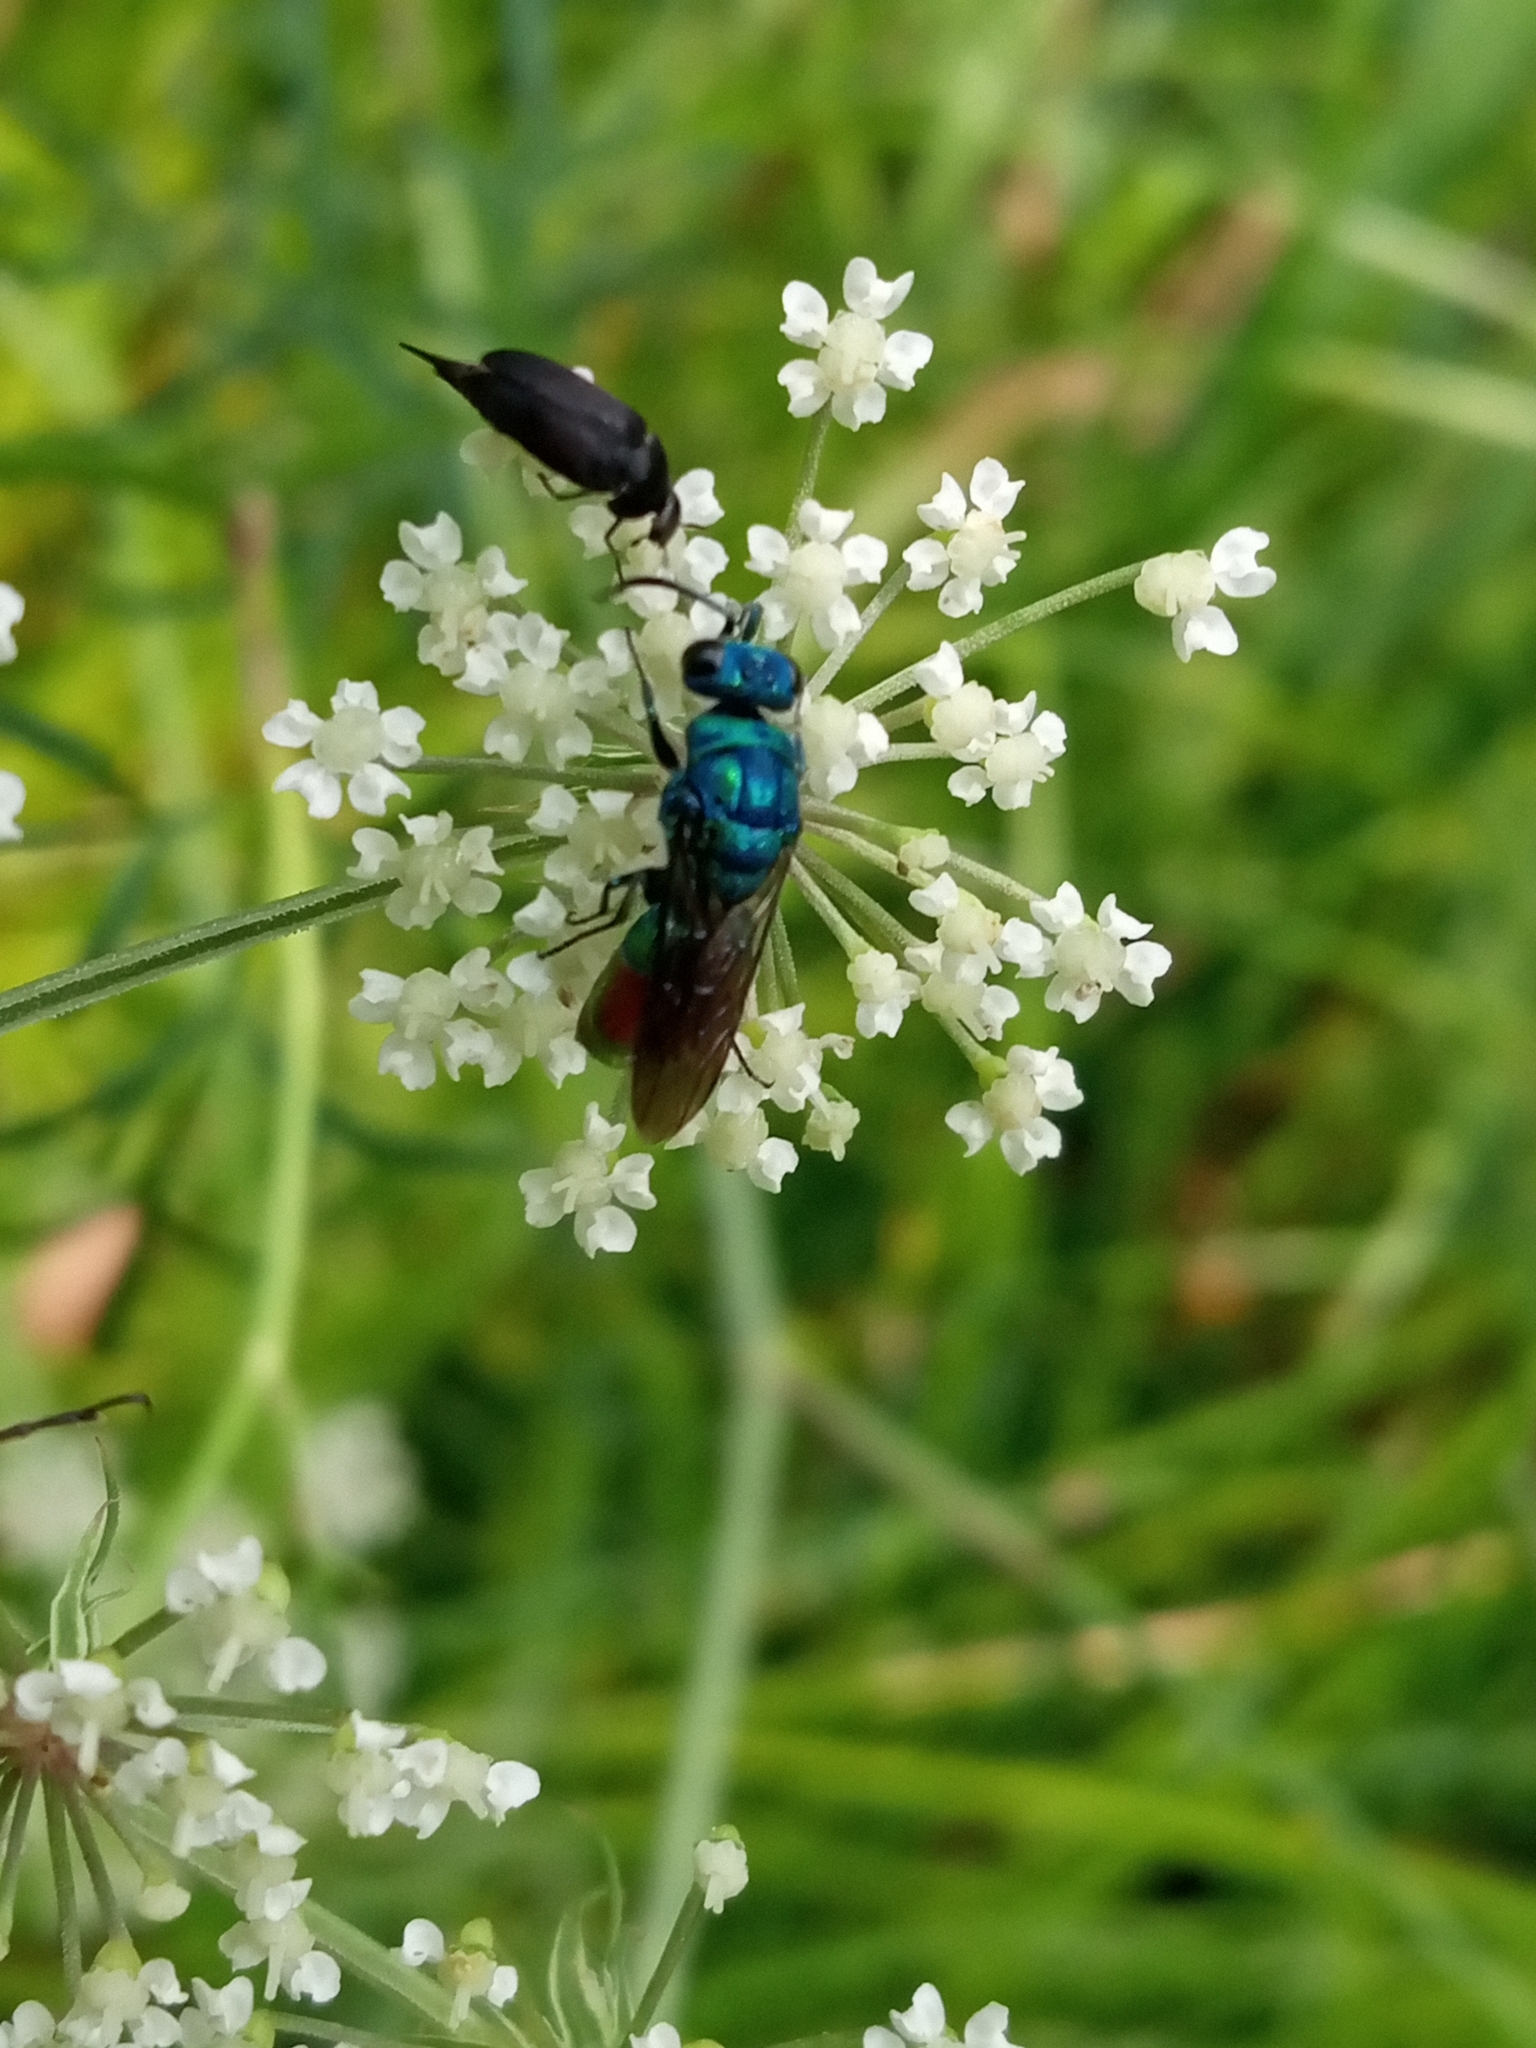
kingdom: Animalia
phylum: Arthropoda
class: Insecta
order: Hymenoptera
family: Chrysididae
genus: Chrysis
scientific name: Chrysis fulgida
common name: Shimmering ruby-tail
